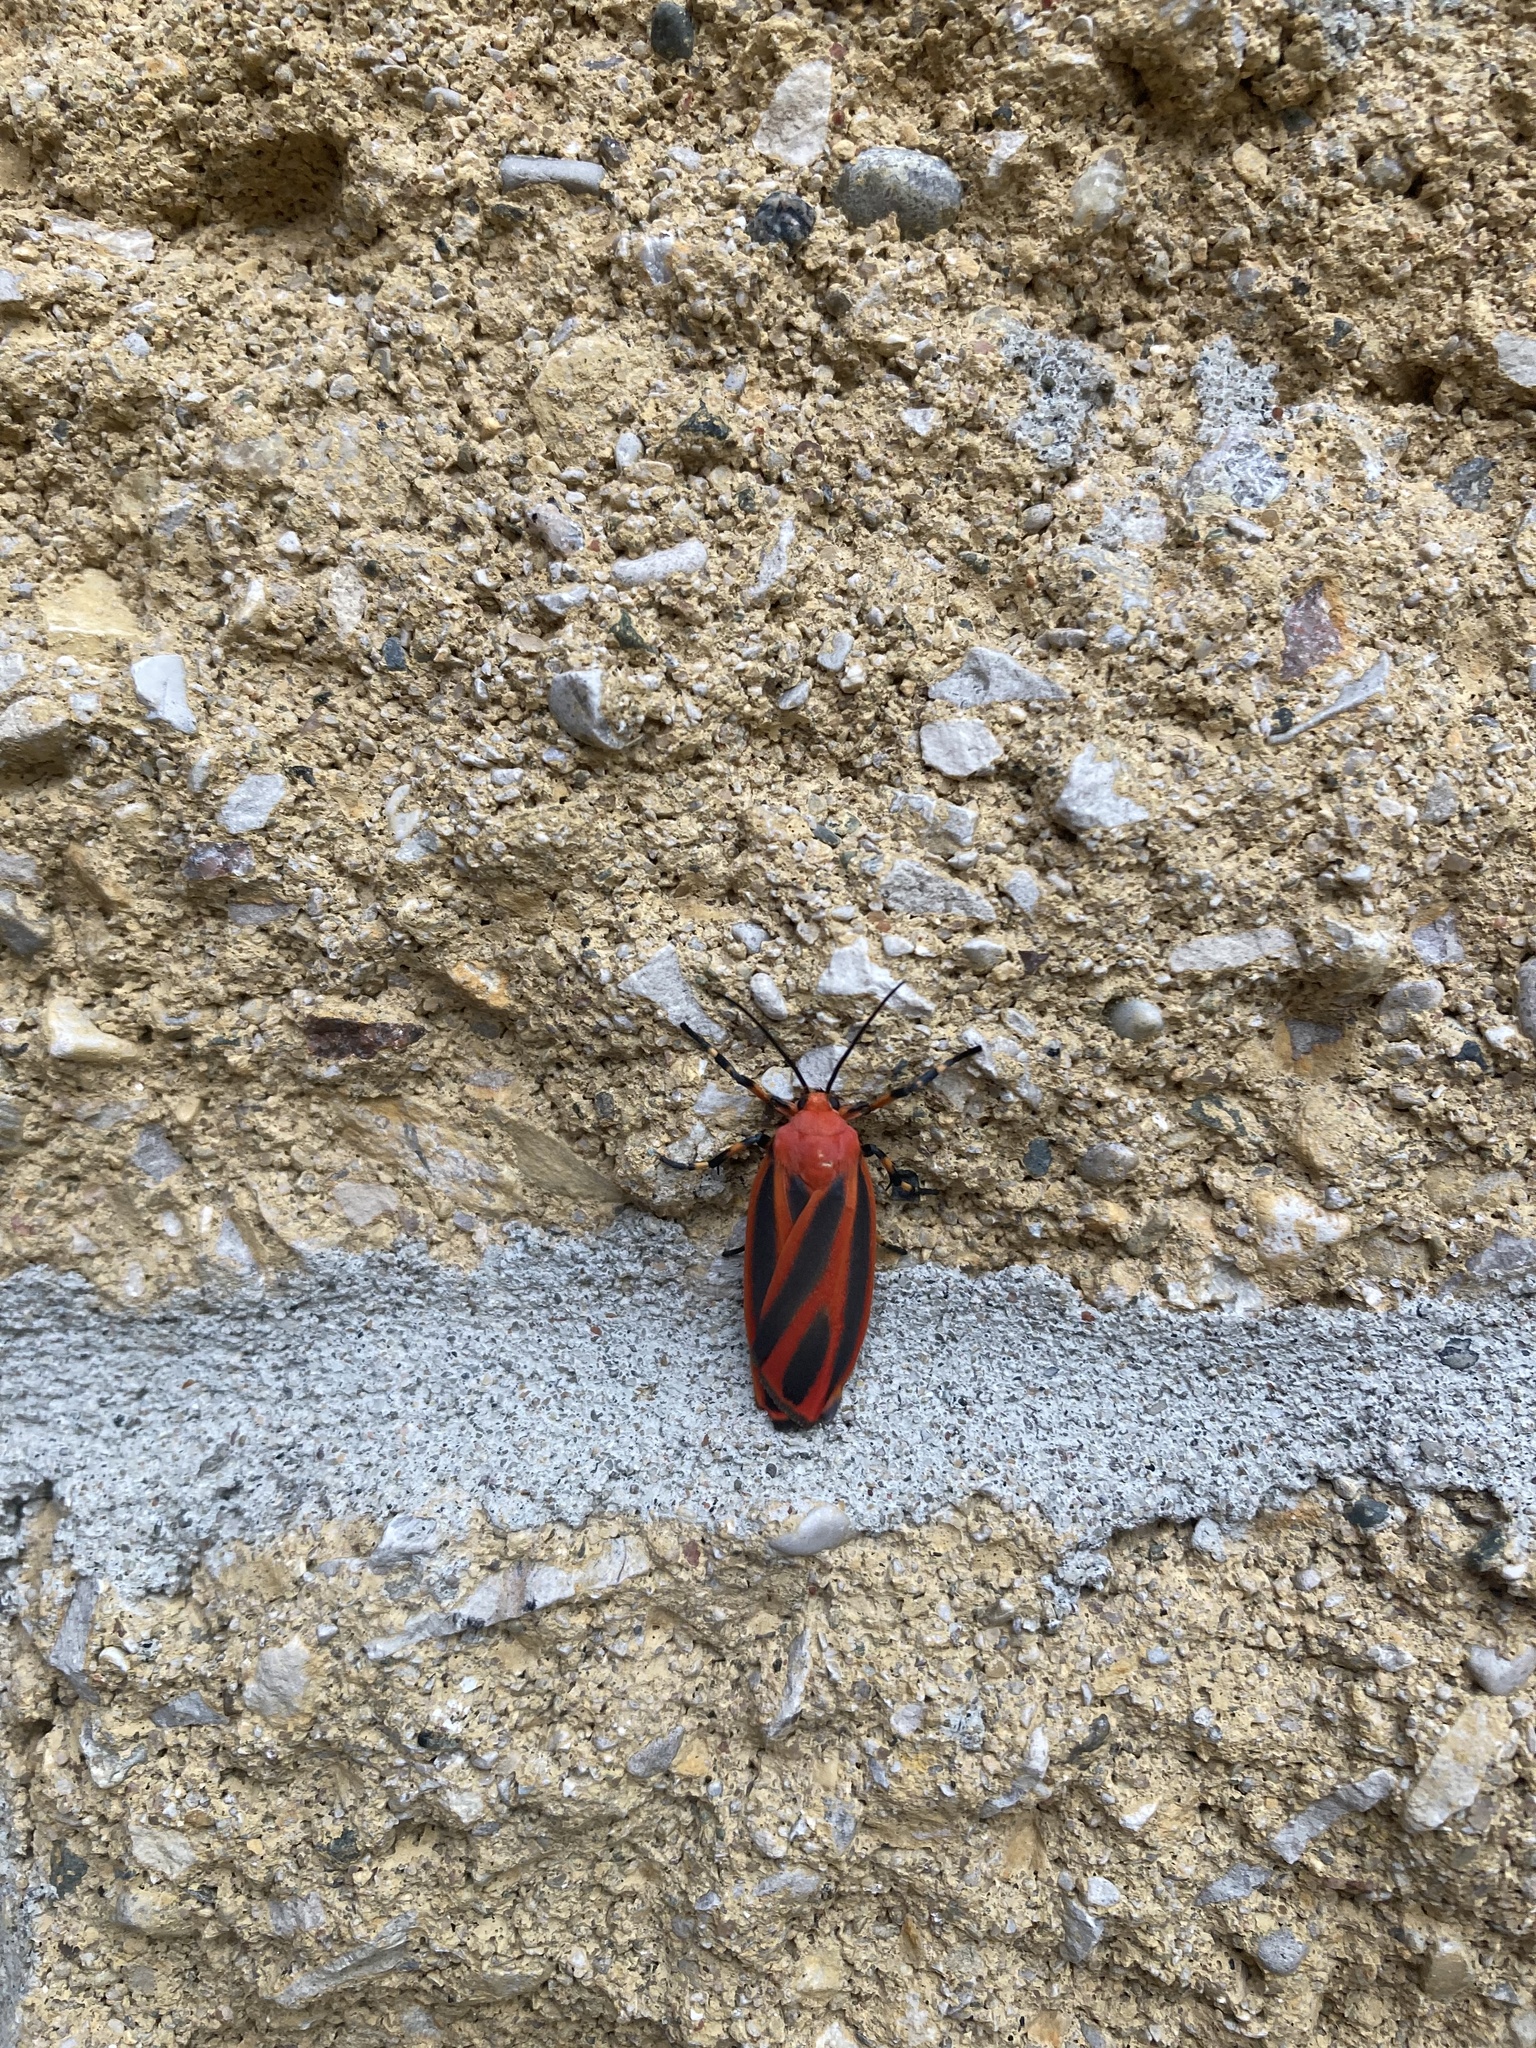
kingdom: Animalia
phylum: Arthropoda
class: Insecta
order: Lepidoptera
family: Erebidae
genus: Hypoprepia
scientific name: Hypoprepia miniata
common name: Scarlet-winged lichen moth
